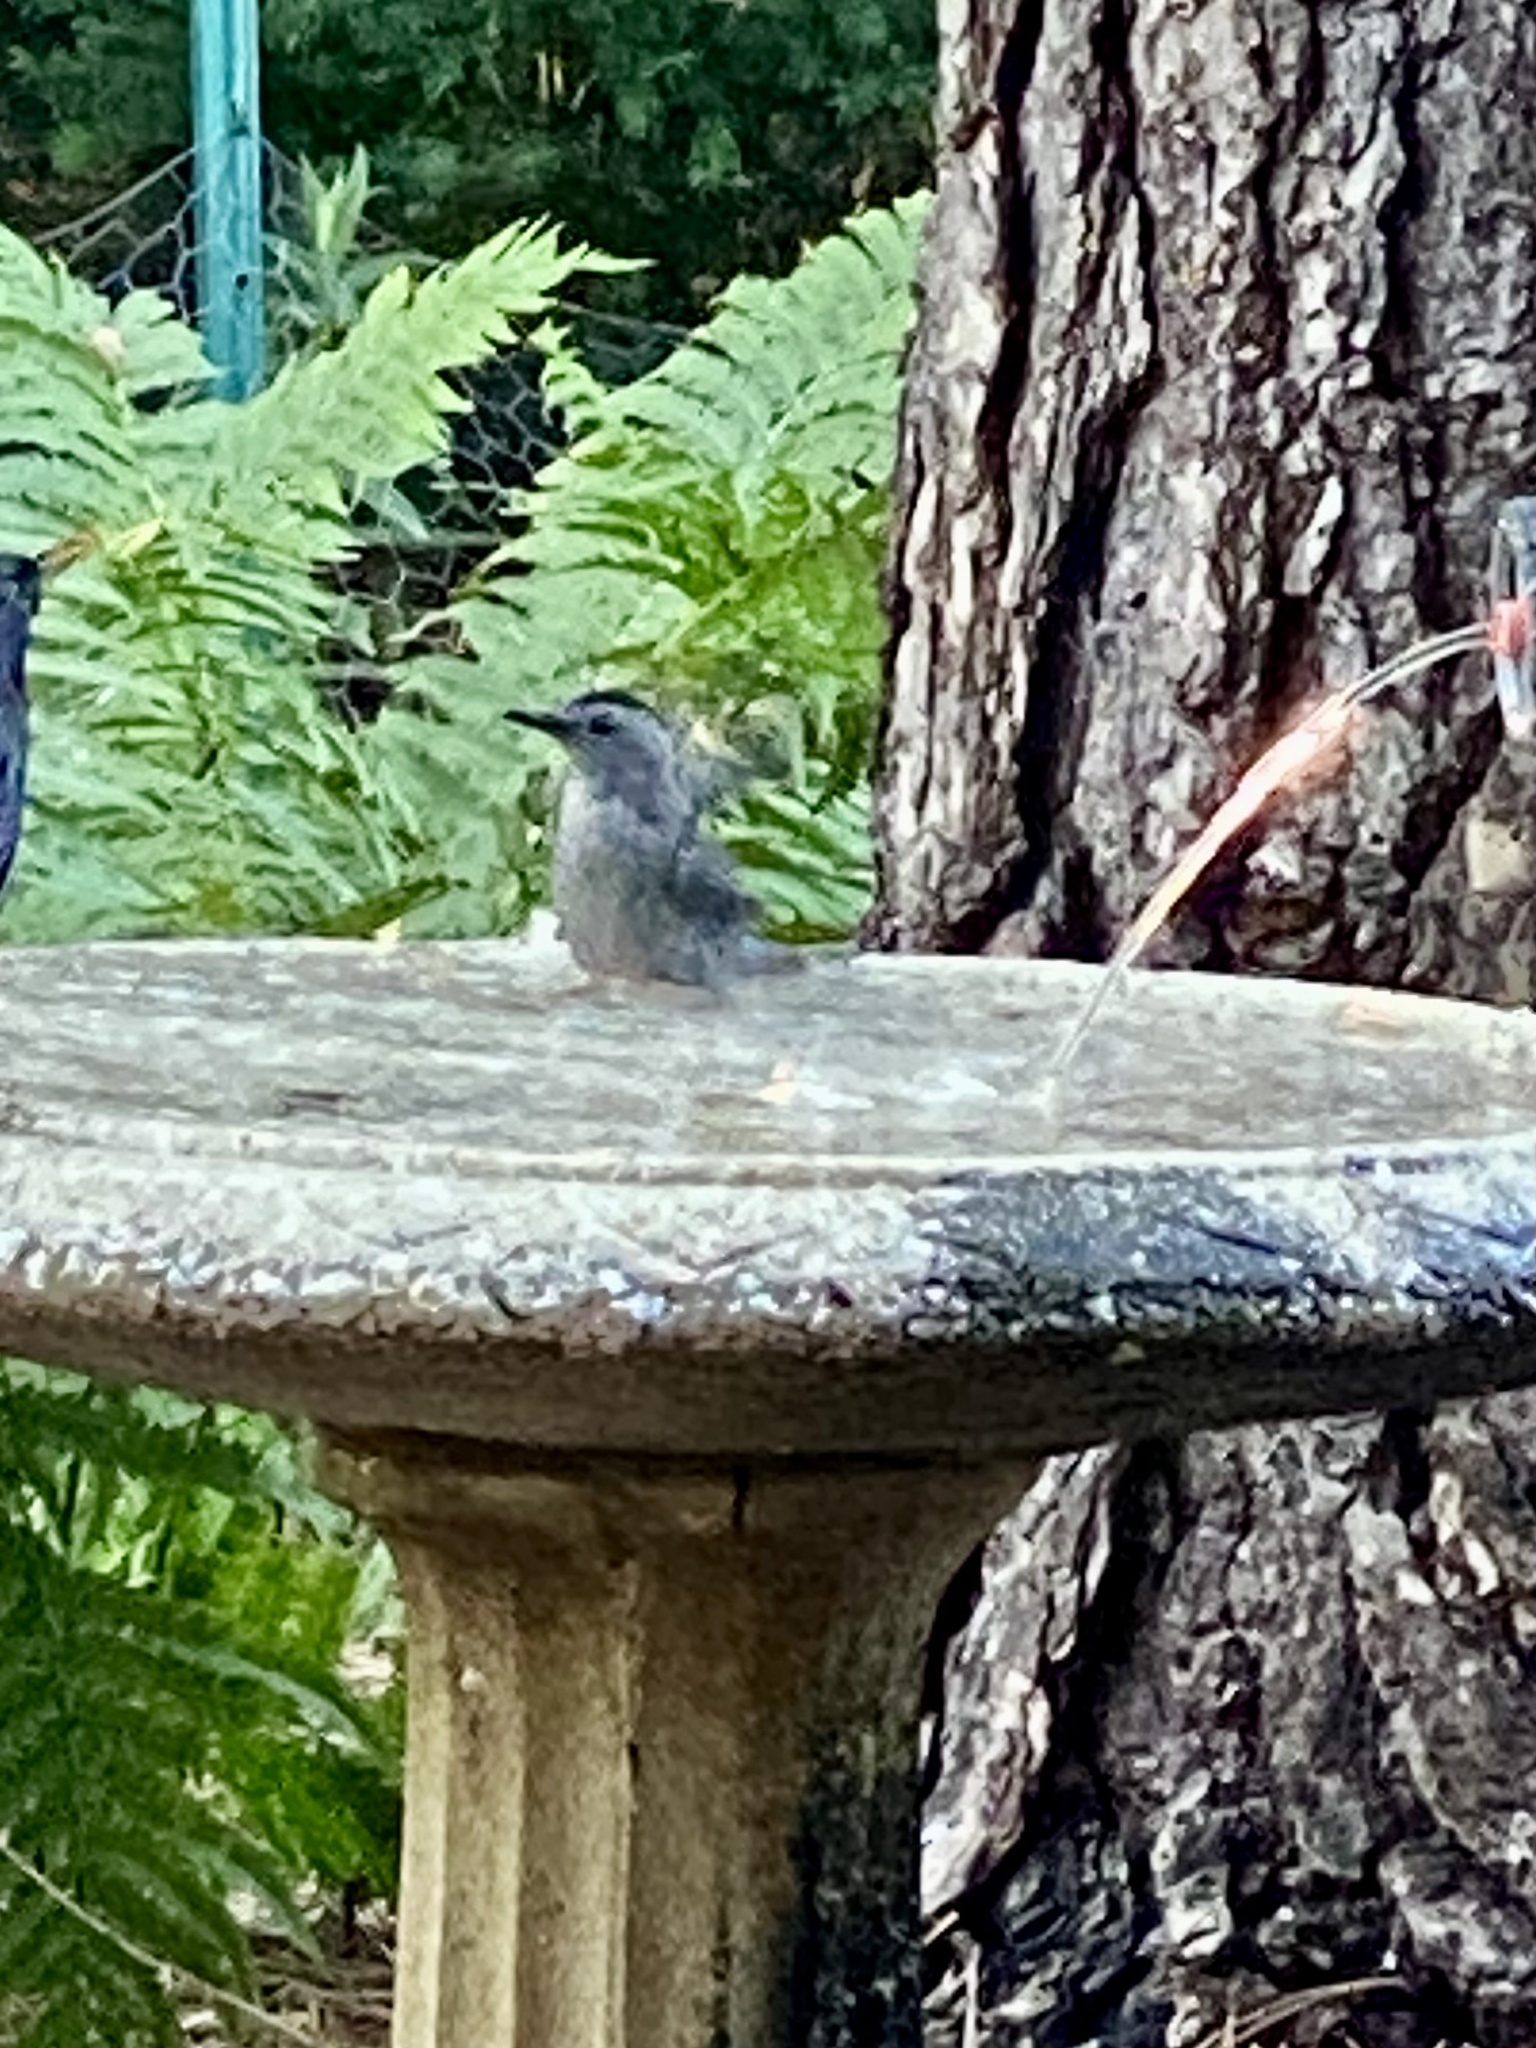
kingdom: Animalia
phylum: Chordata
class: Aves
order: Passeriformes
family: Mimidae
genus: Dumetella
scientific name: Dumetella carolinensis
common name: Gray catbird
